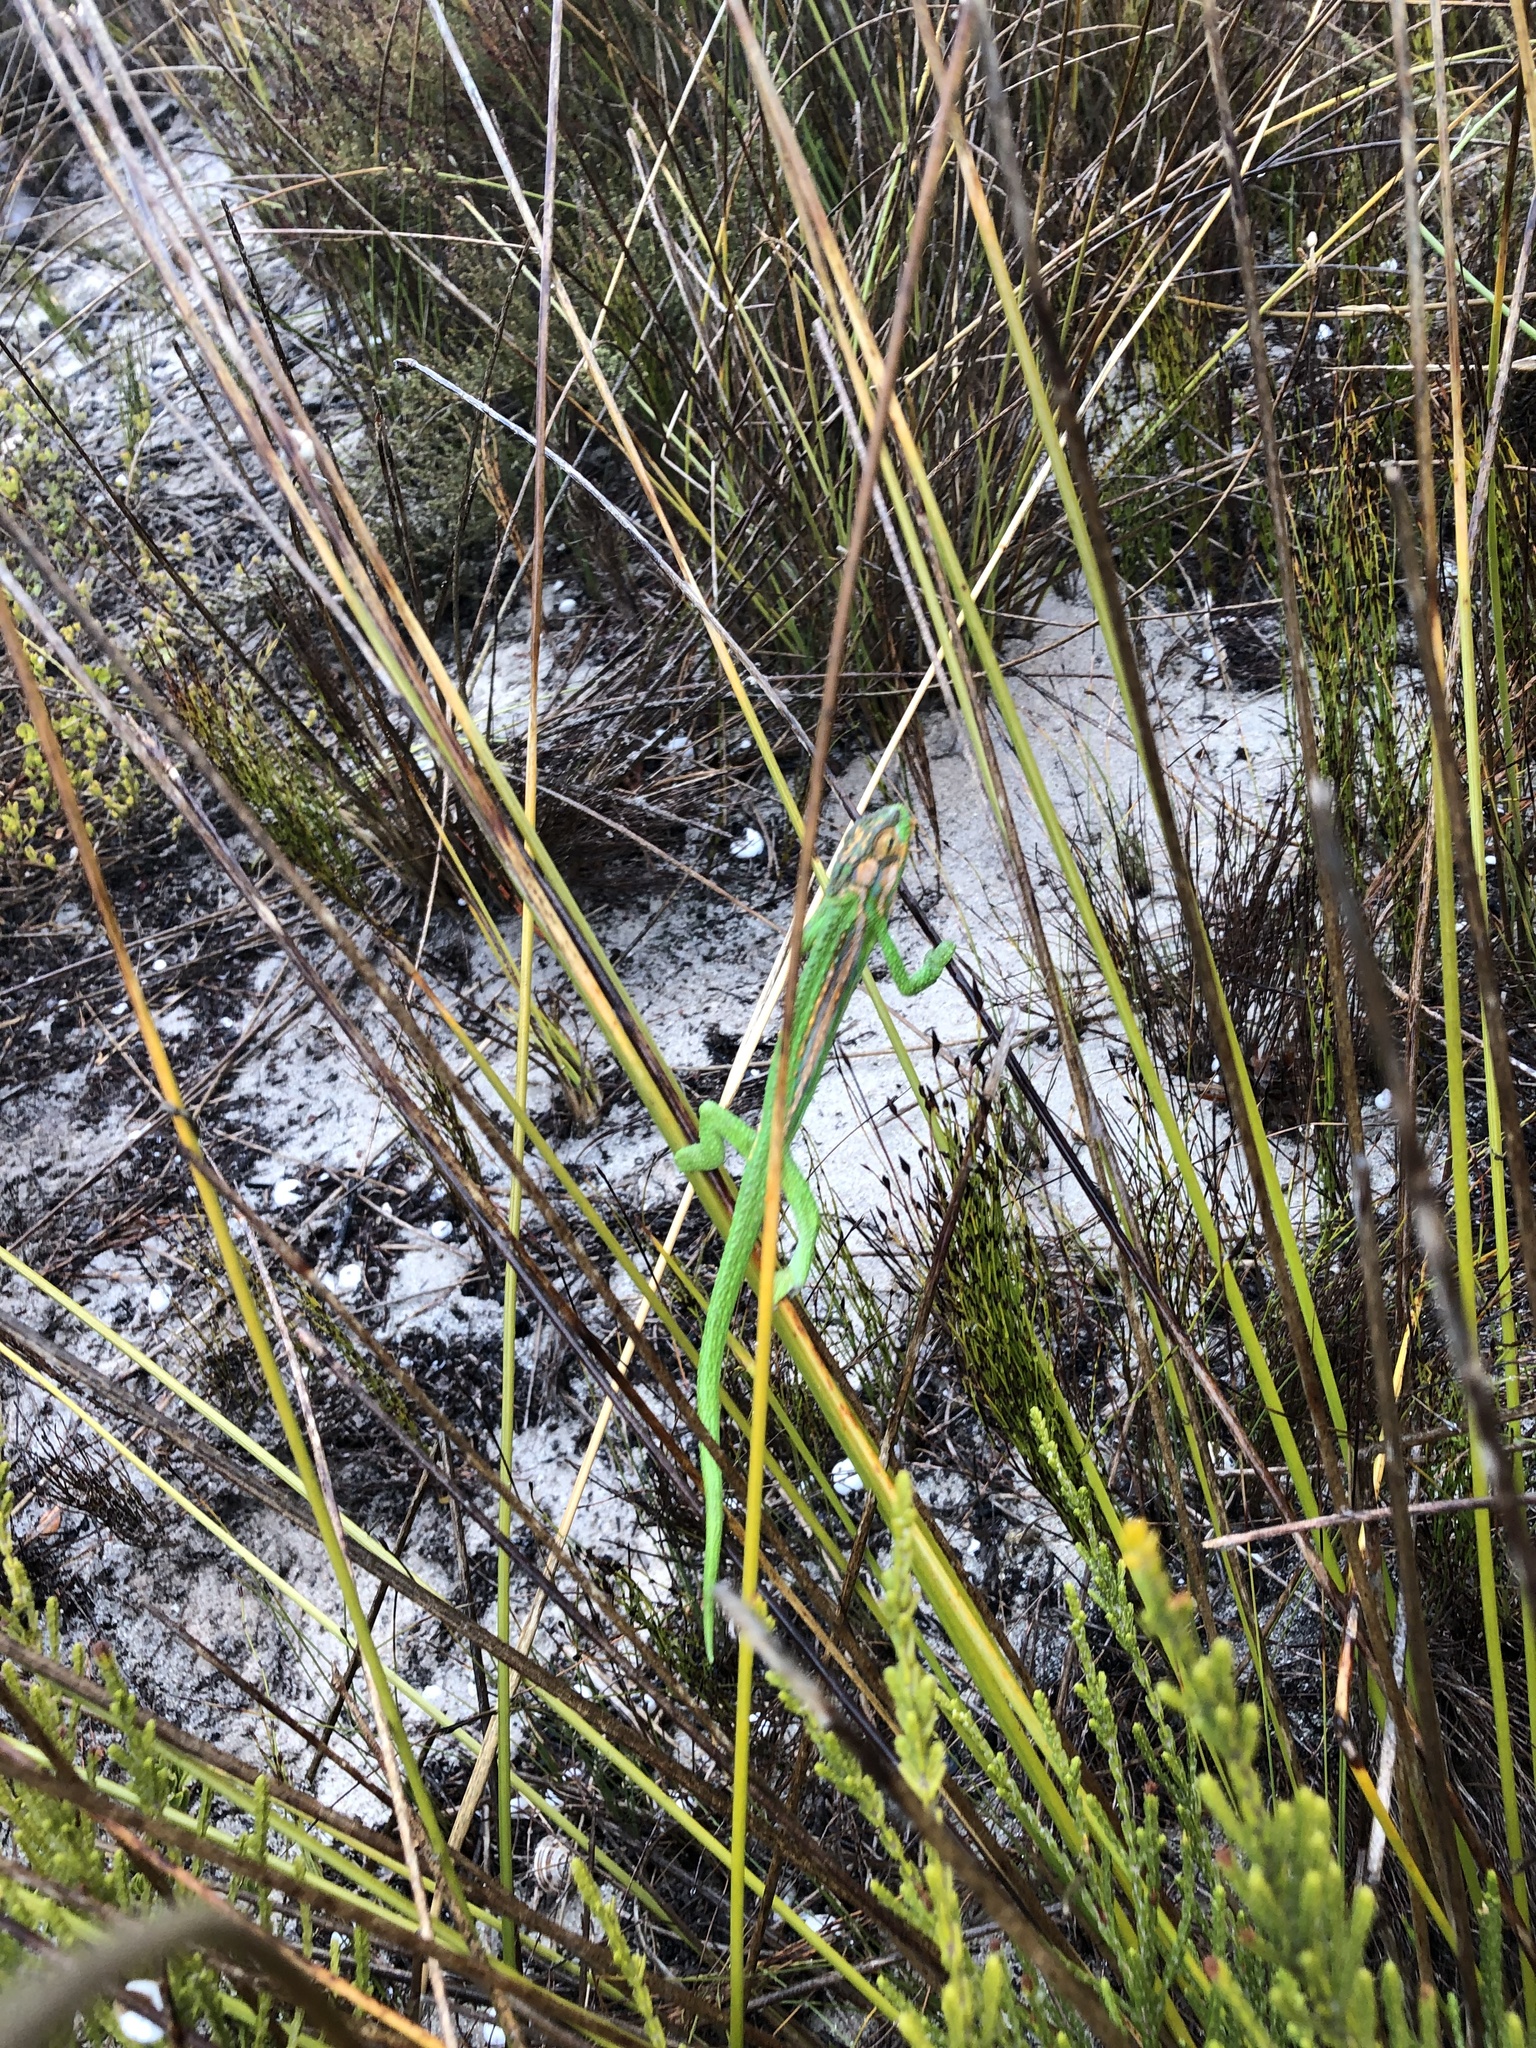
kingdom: Animalia
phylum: Chordata
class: Squamata
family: Chamaeleonidae
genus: Bradypodion
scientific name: Bradypodion pumilum
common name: Cape dwarf chameleon
